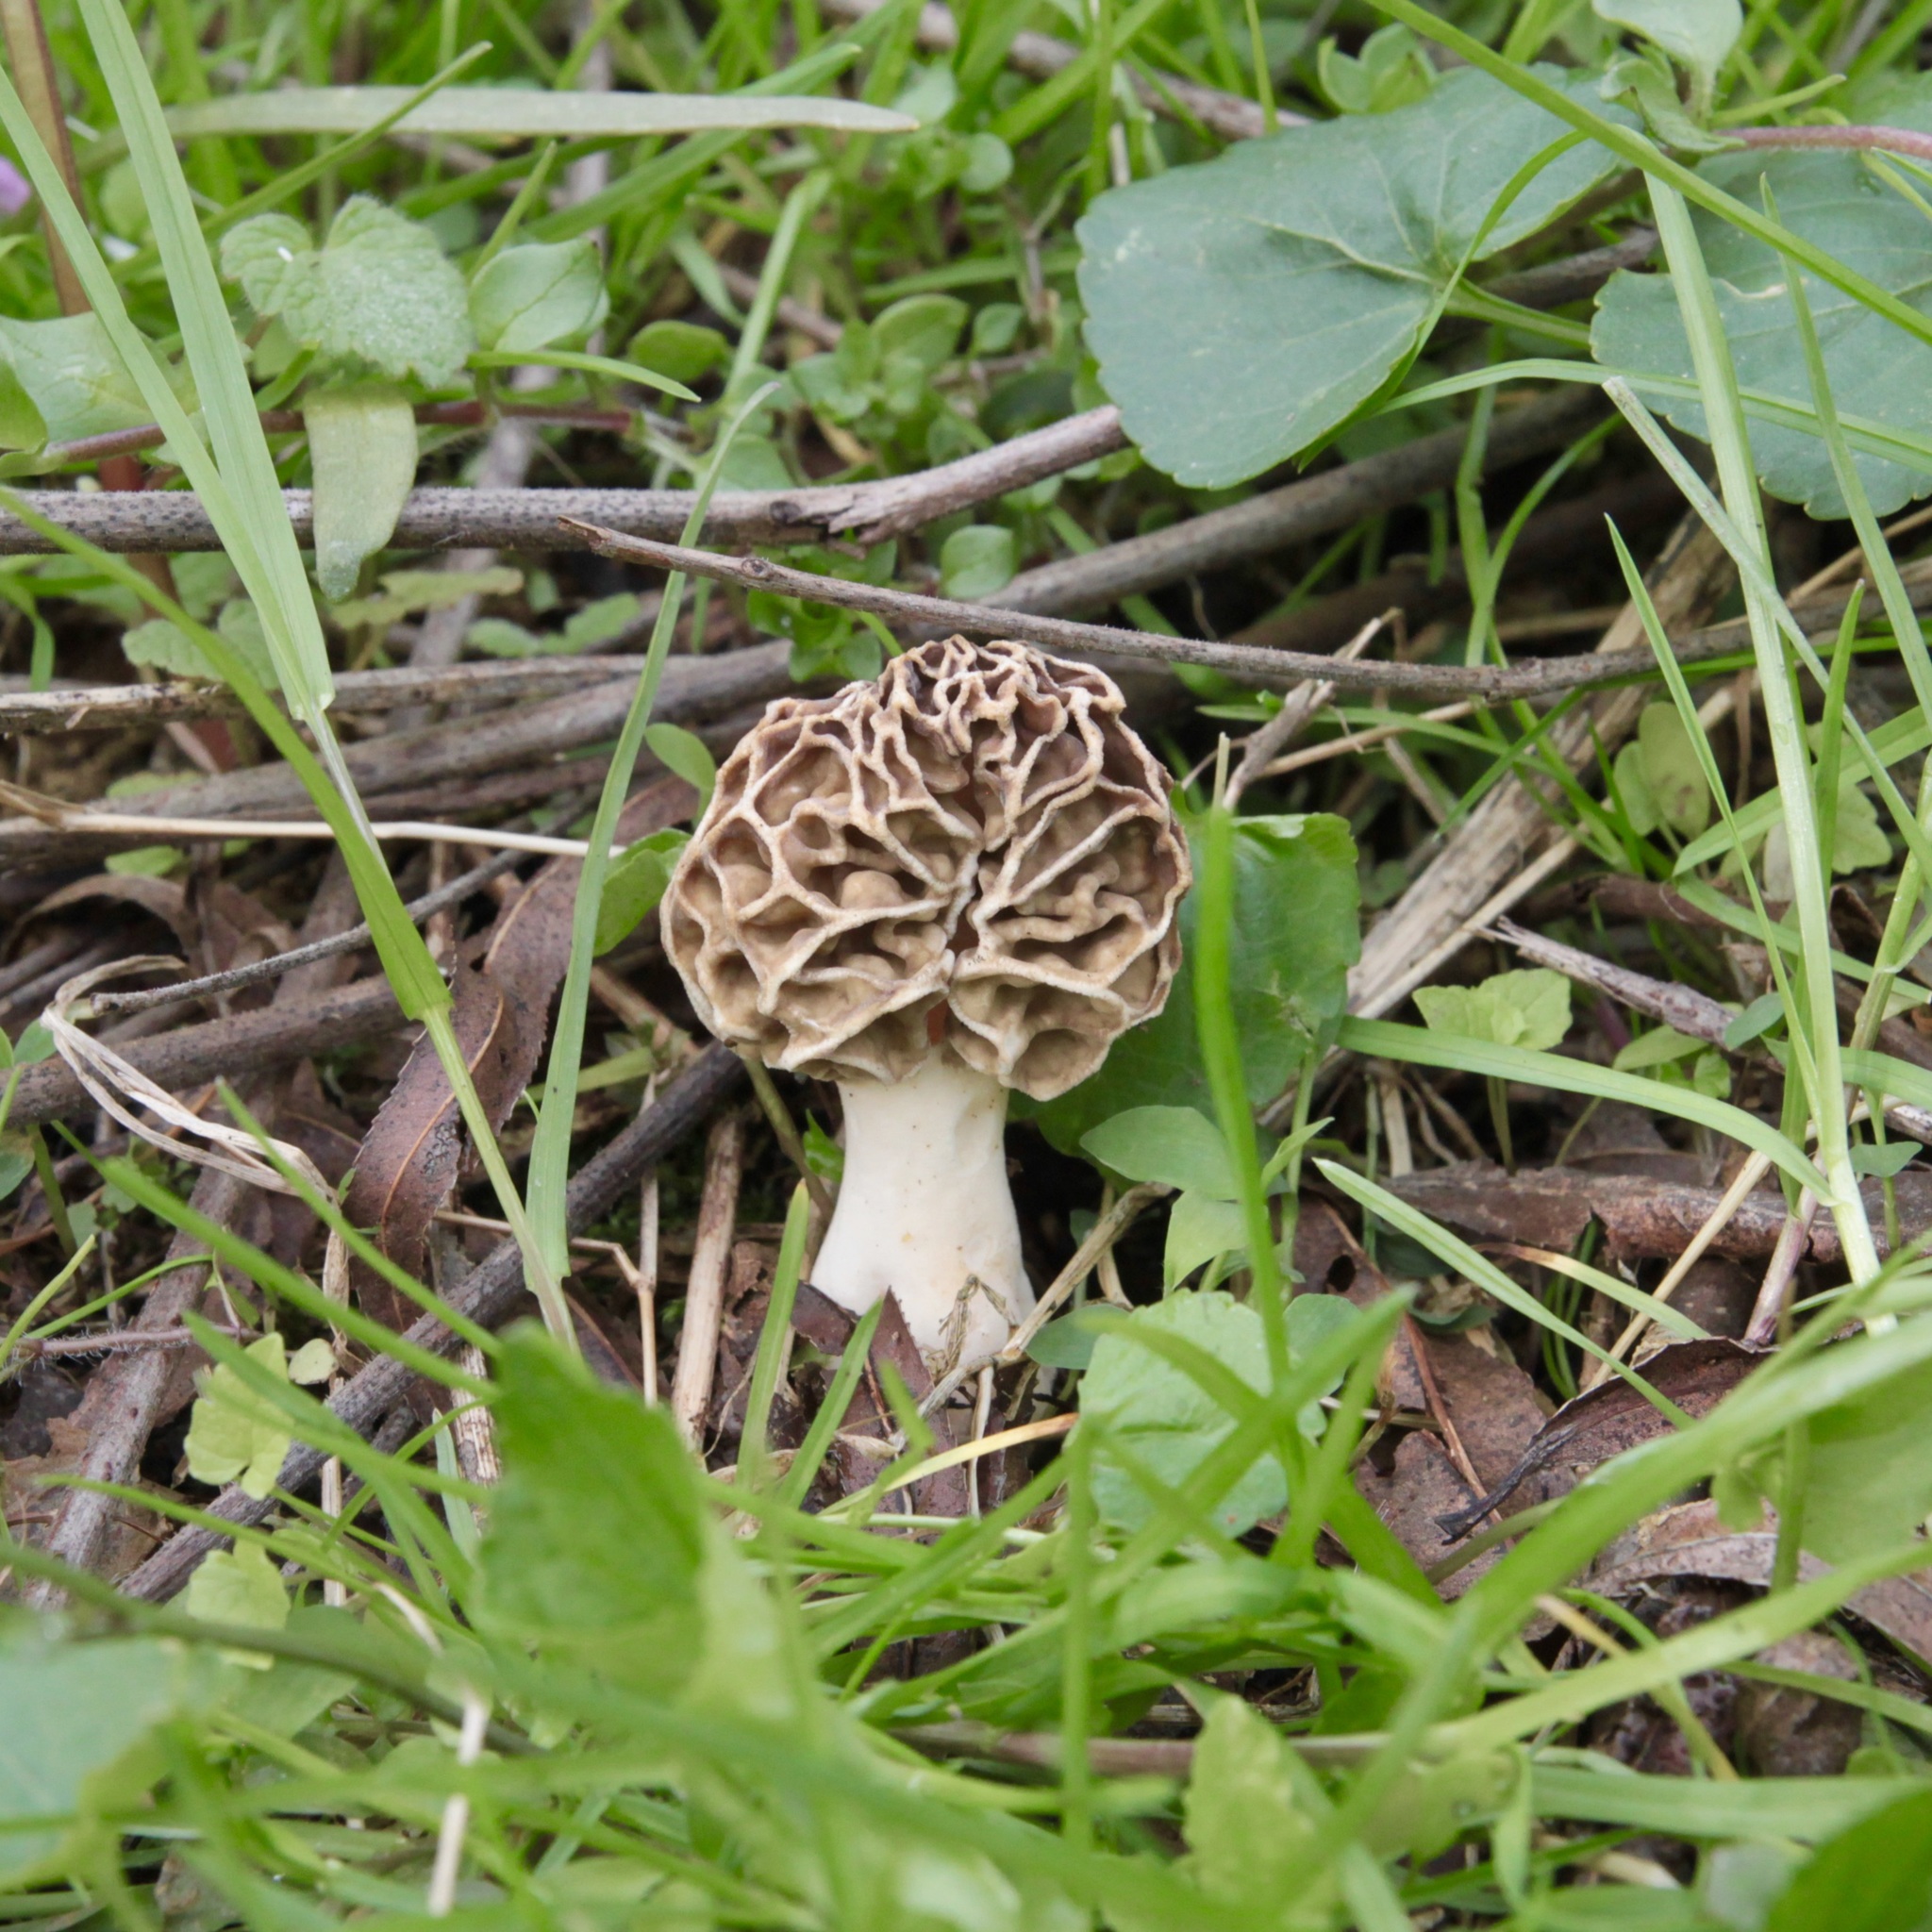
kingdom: Fungi
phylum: Ascomycota
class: Pezizomycetes
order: Pezizales
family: Morchellaceae
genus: Morchella
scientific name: Morchella americana
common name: White morel
